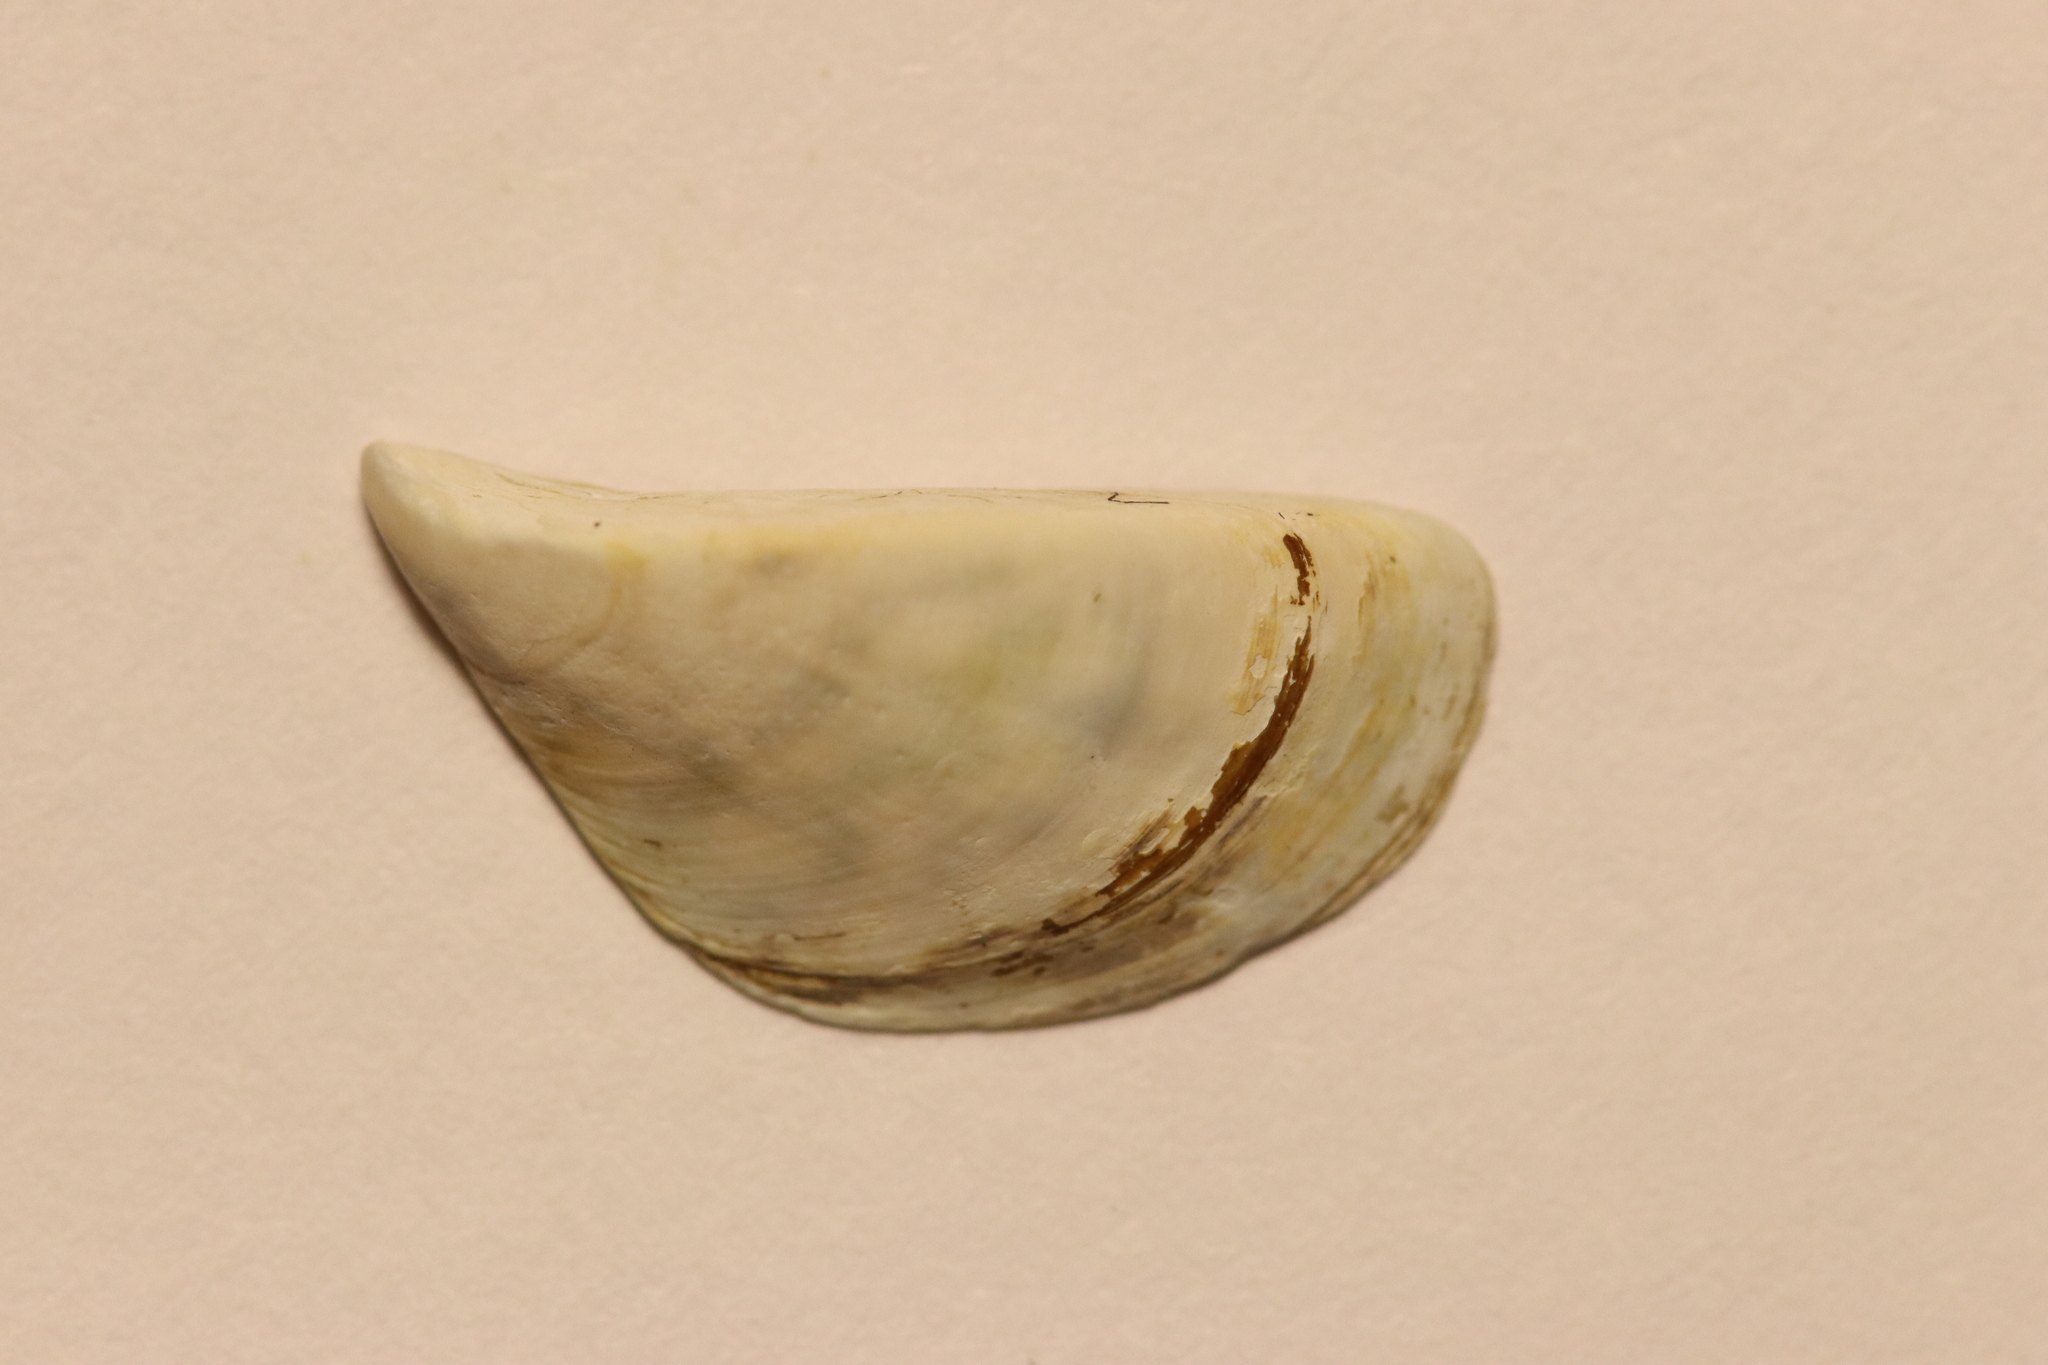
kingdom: Animalia
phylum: Mollusca
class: Bivalvia
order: Myida
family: Dreissenidae
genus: Dreissena
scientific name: Dreissena polymorpha
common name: Zebra mussel
